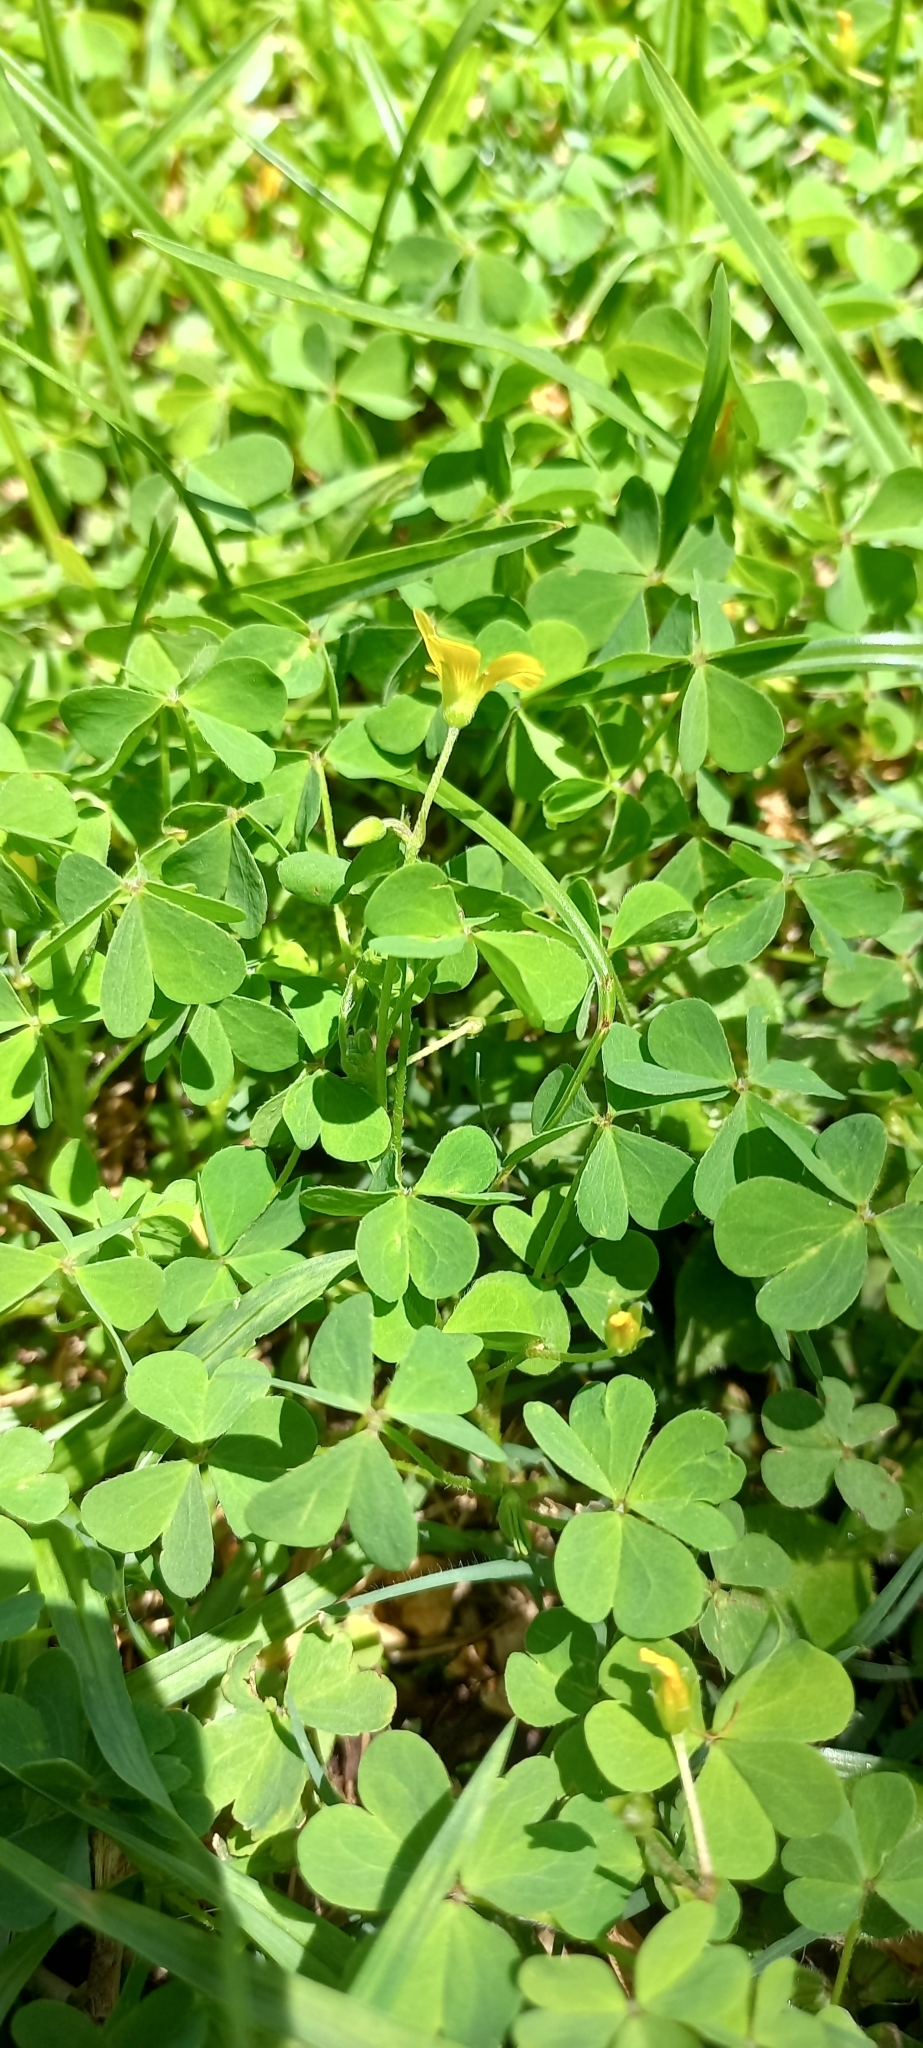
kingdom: Plantae
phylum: Tracheophyta
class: Magnoliopsida
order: Oxalidales
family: Oxalidaceae
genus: Oxalis
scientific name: Oxalis corniculata
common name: Procumbent yellow-sorrel
